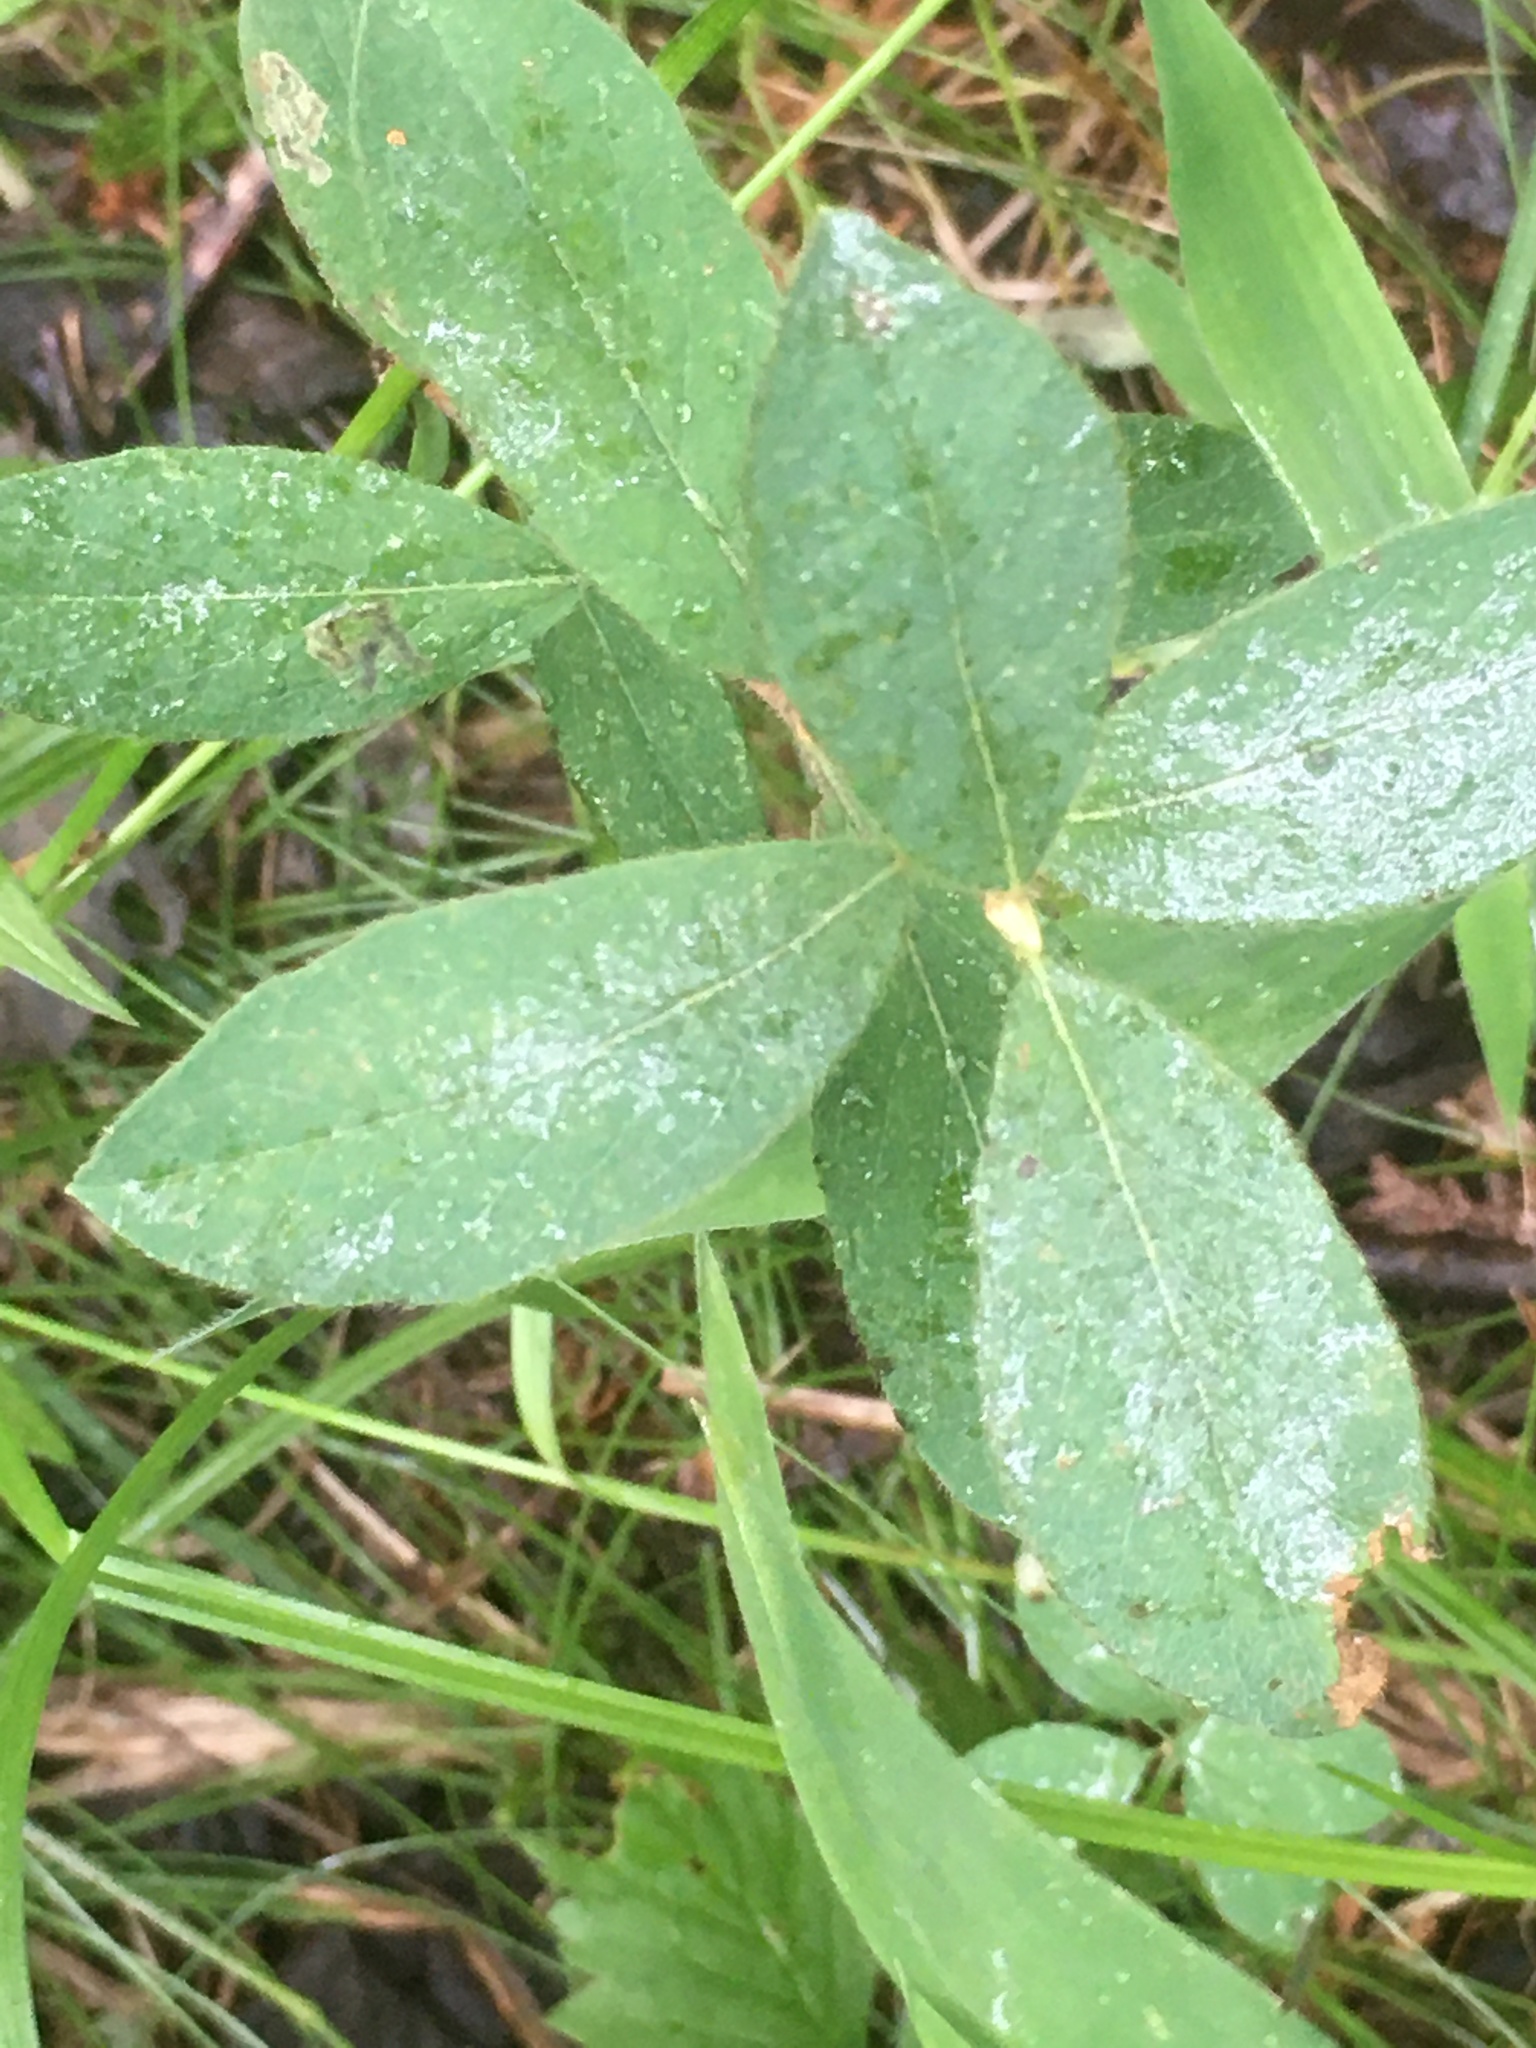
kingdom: Plantae
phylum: Tracheophyta
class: Magnoliopsida
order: Dipsacales
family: Caprifoliaceae
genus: Lonicera
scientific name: Lonicera villosa
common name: Mountain fly-honeysuckle
